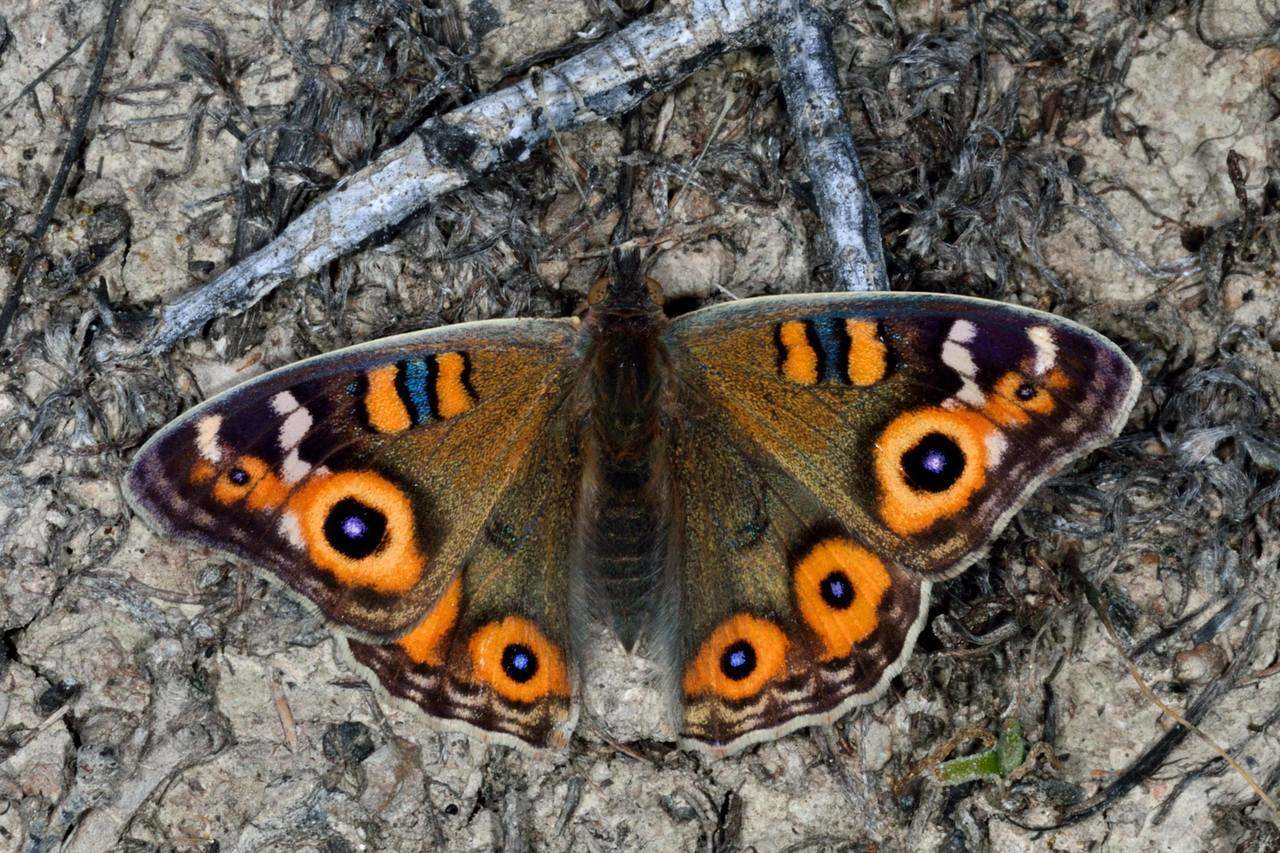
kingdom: Animalia
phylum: Arthropoda
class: Insecta
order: Lepidoptera
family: Nymphalidae
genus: Junonia
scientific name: Junonia villida
